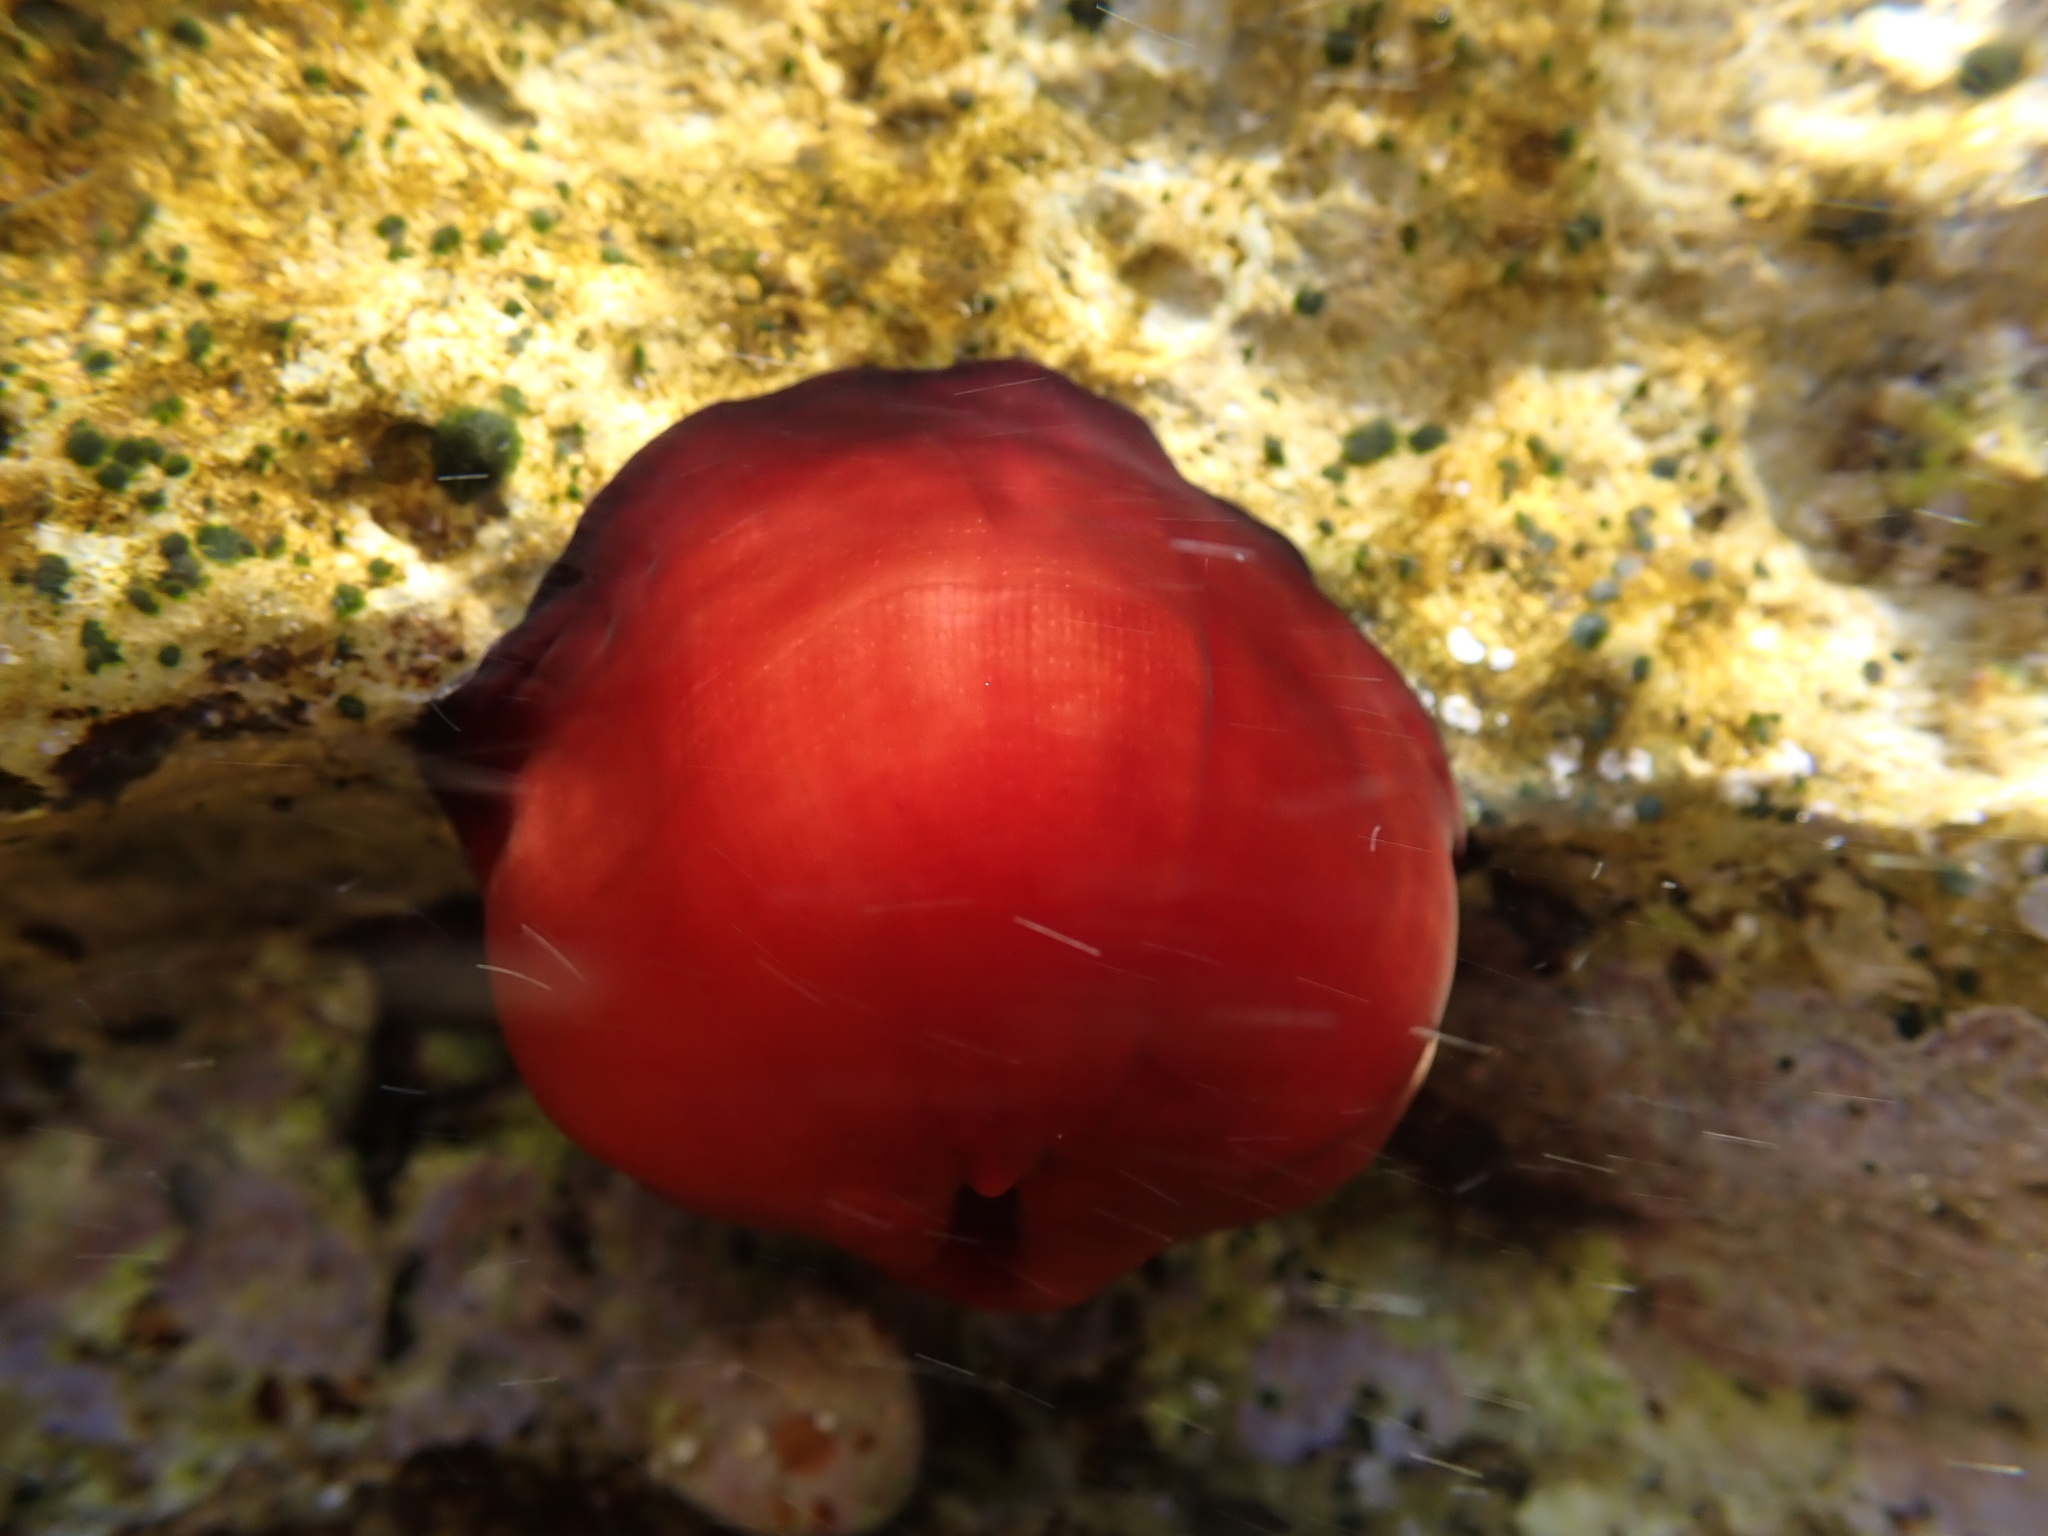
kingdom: Animalia
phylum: Cnidaria
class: Anthozoa
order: Actiniaria
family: Actiniidae
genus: Actinia
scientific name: Actinia mediterranea
